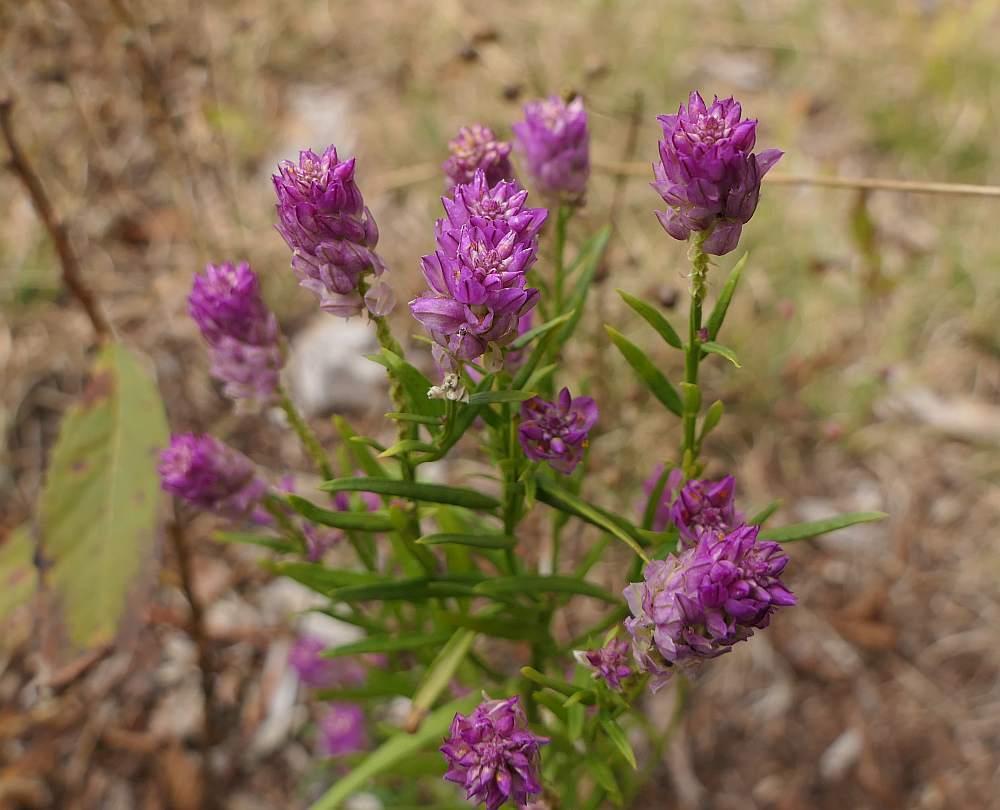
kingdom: Plantae
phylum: Tracheophyta
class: Magnoliopsida
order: Fabales
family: Polygalaceae
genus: Polygala
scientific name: Polygala sanguinea
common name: Blood milkwort
